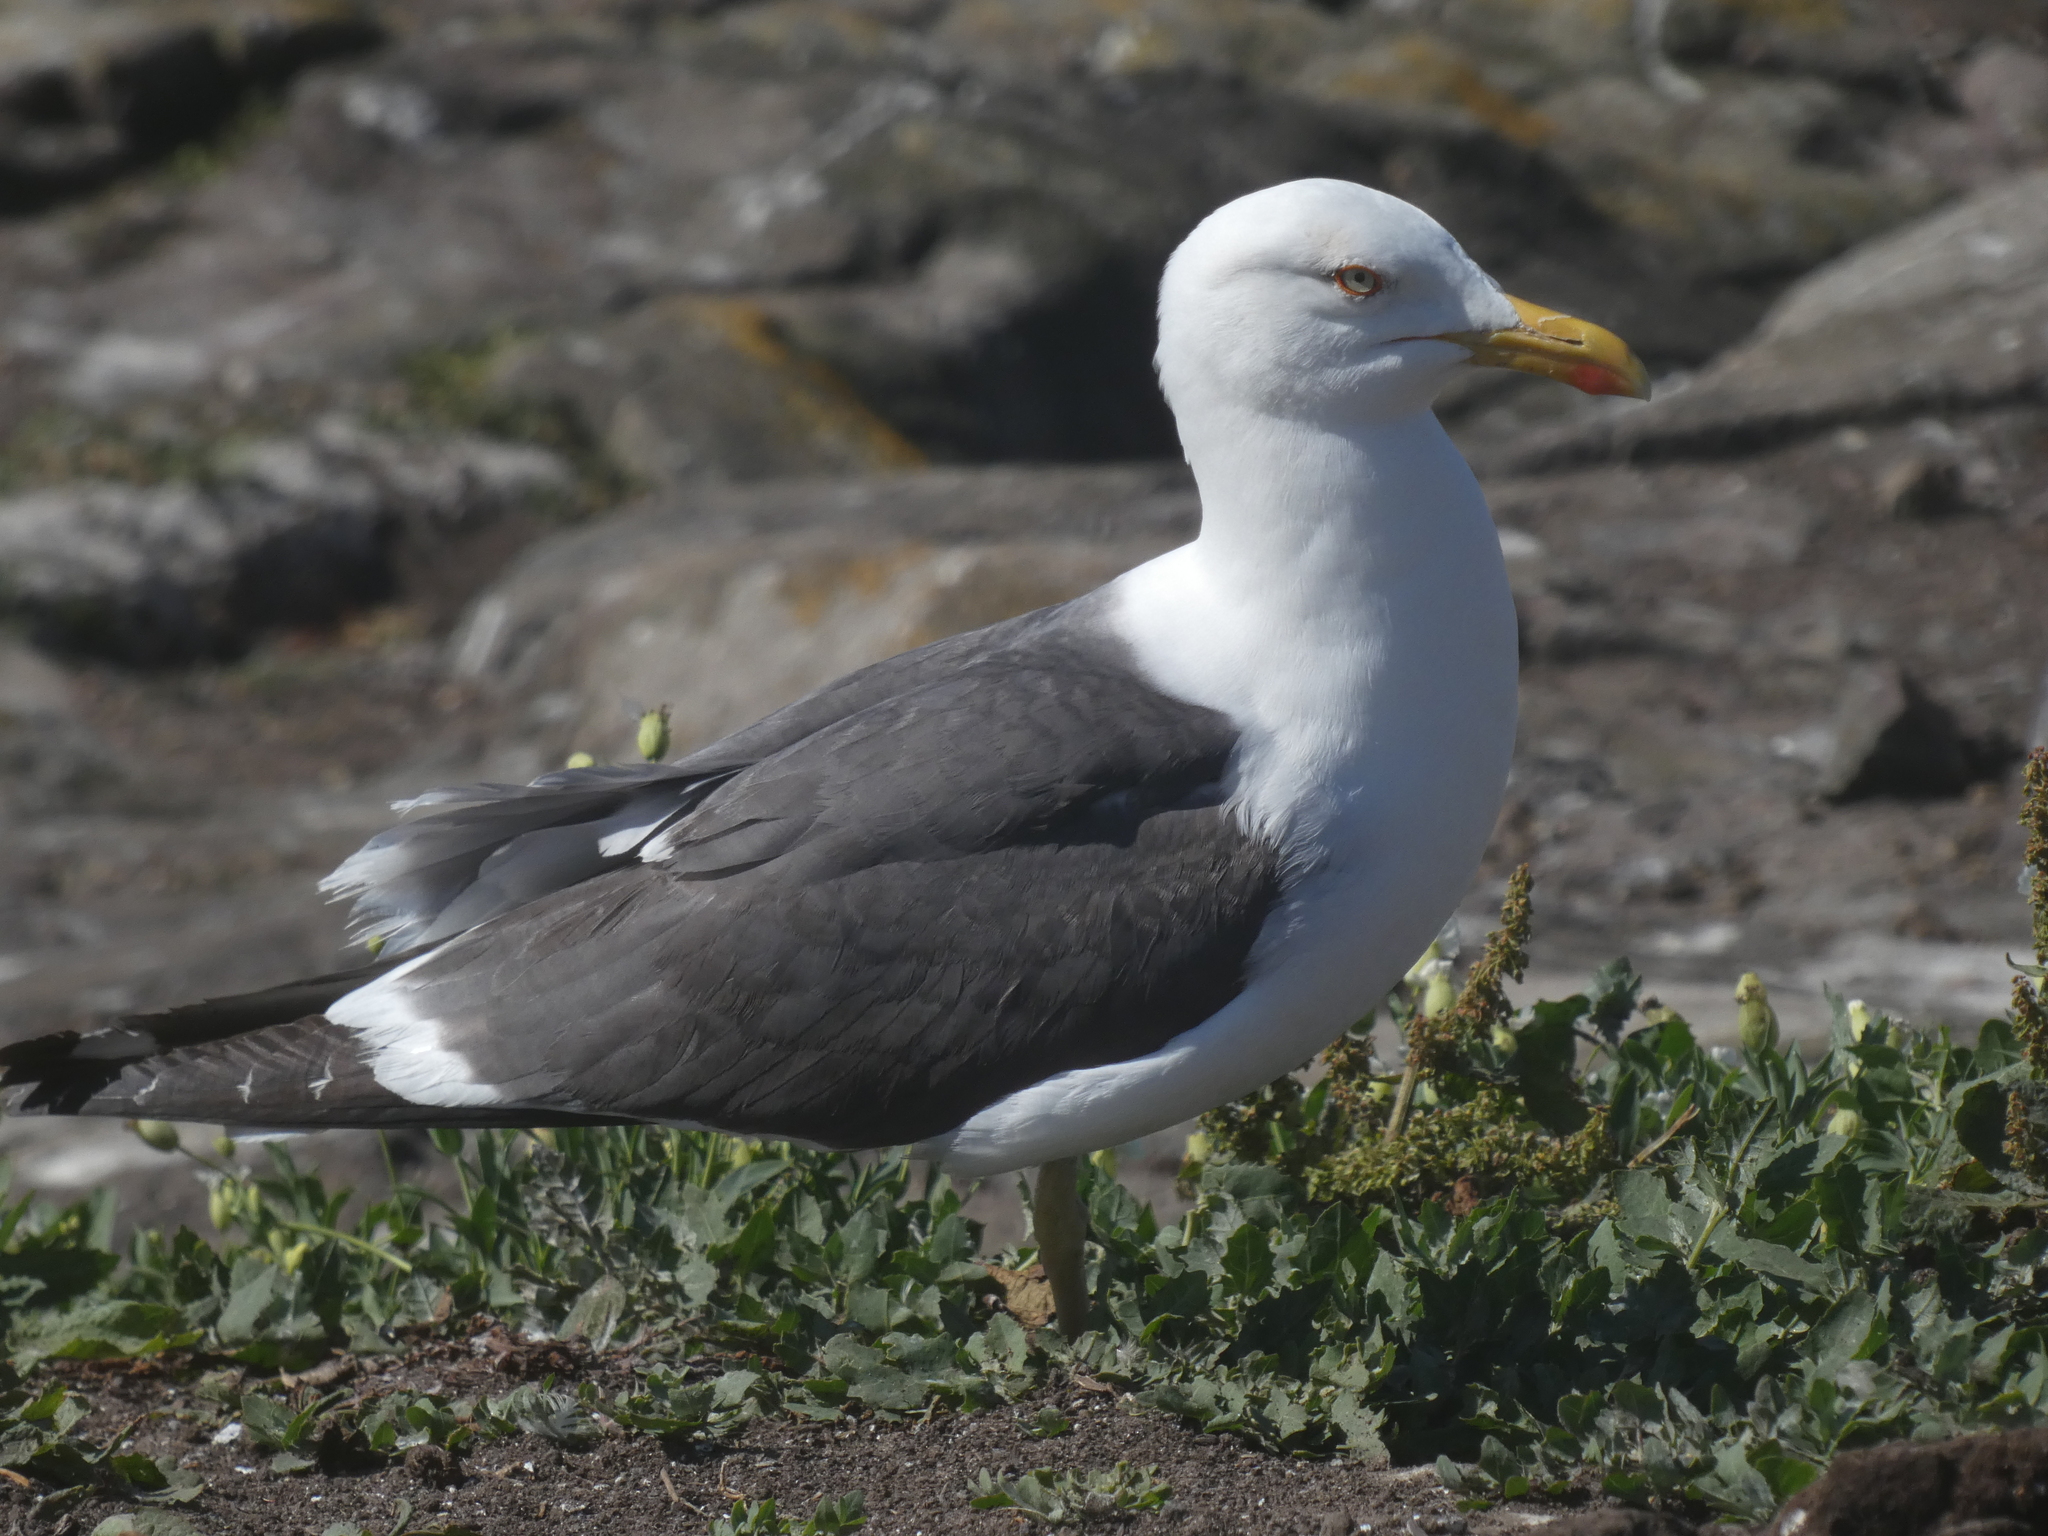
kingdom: Animalia
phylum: Chordata
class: Aves
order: Charadriiformes
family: Laridae
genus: Larus
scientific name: Larus fuscus
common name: Lesser black-backed gull
